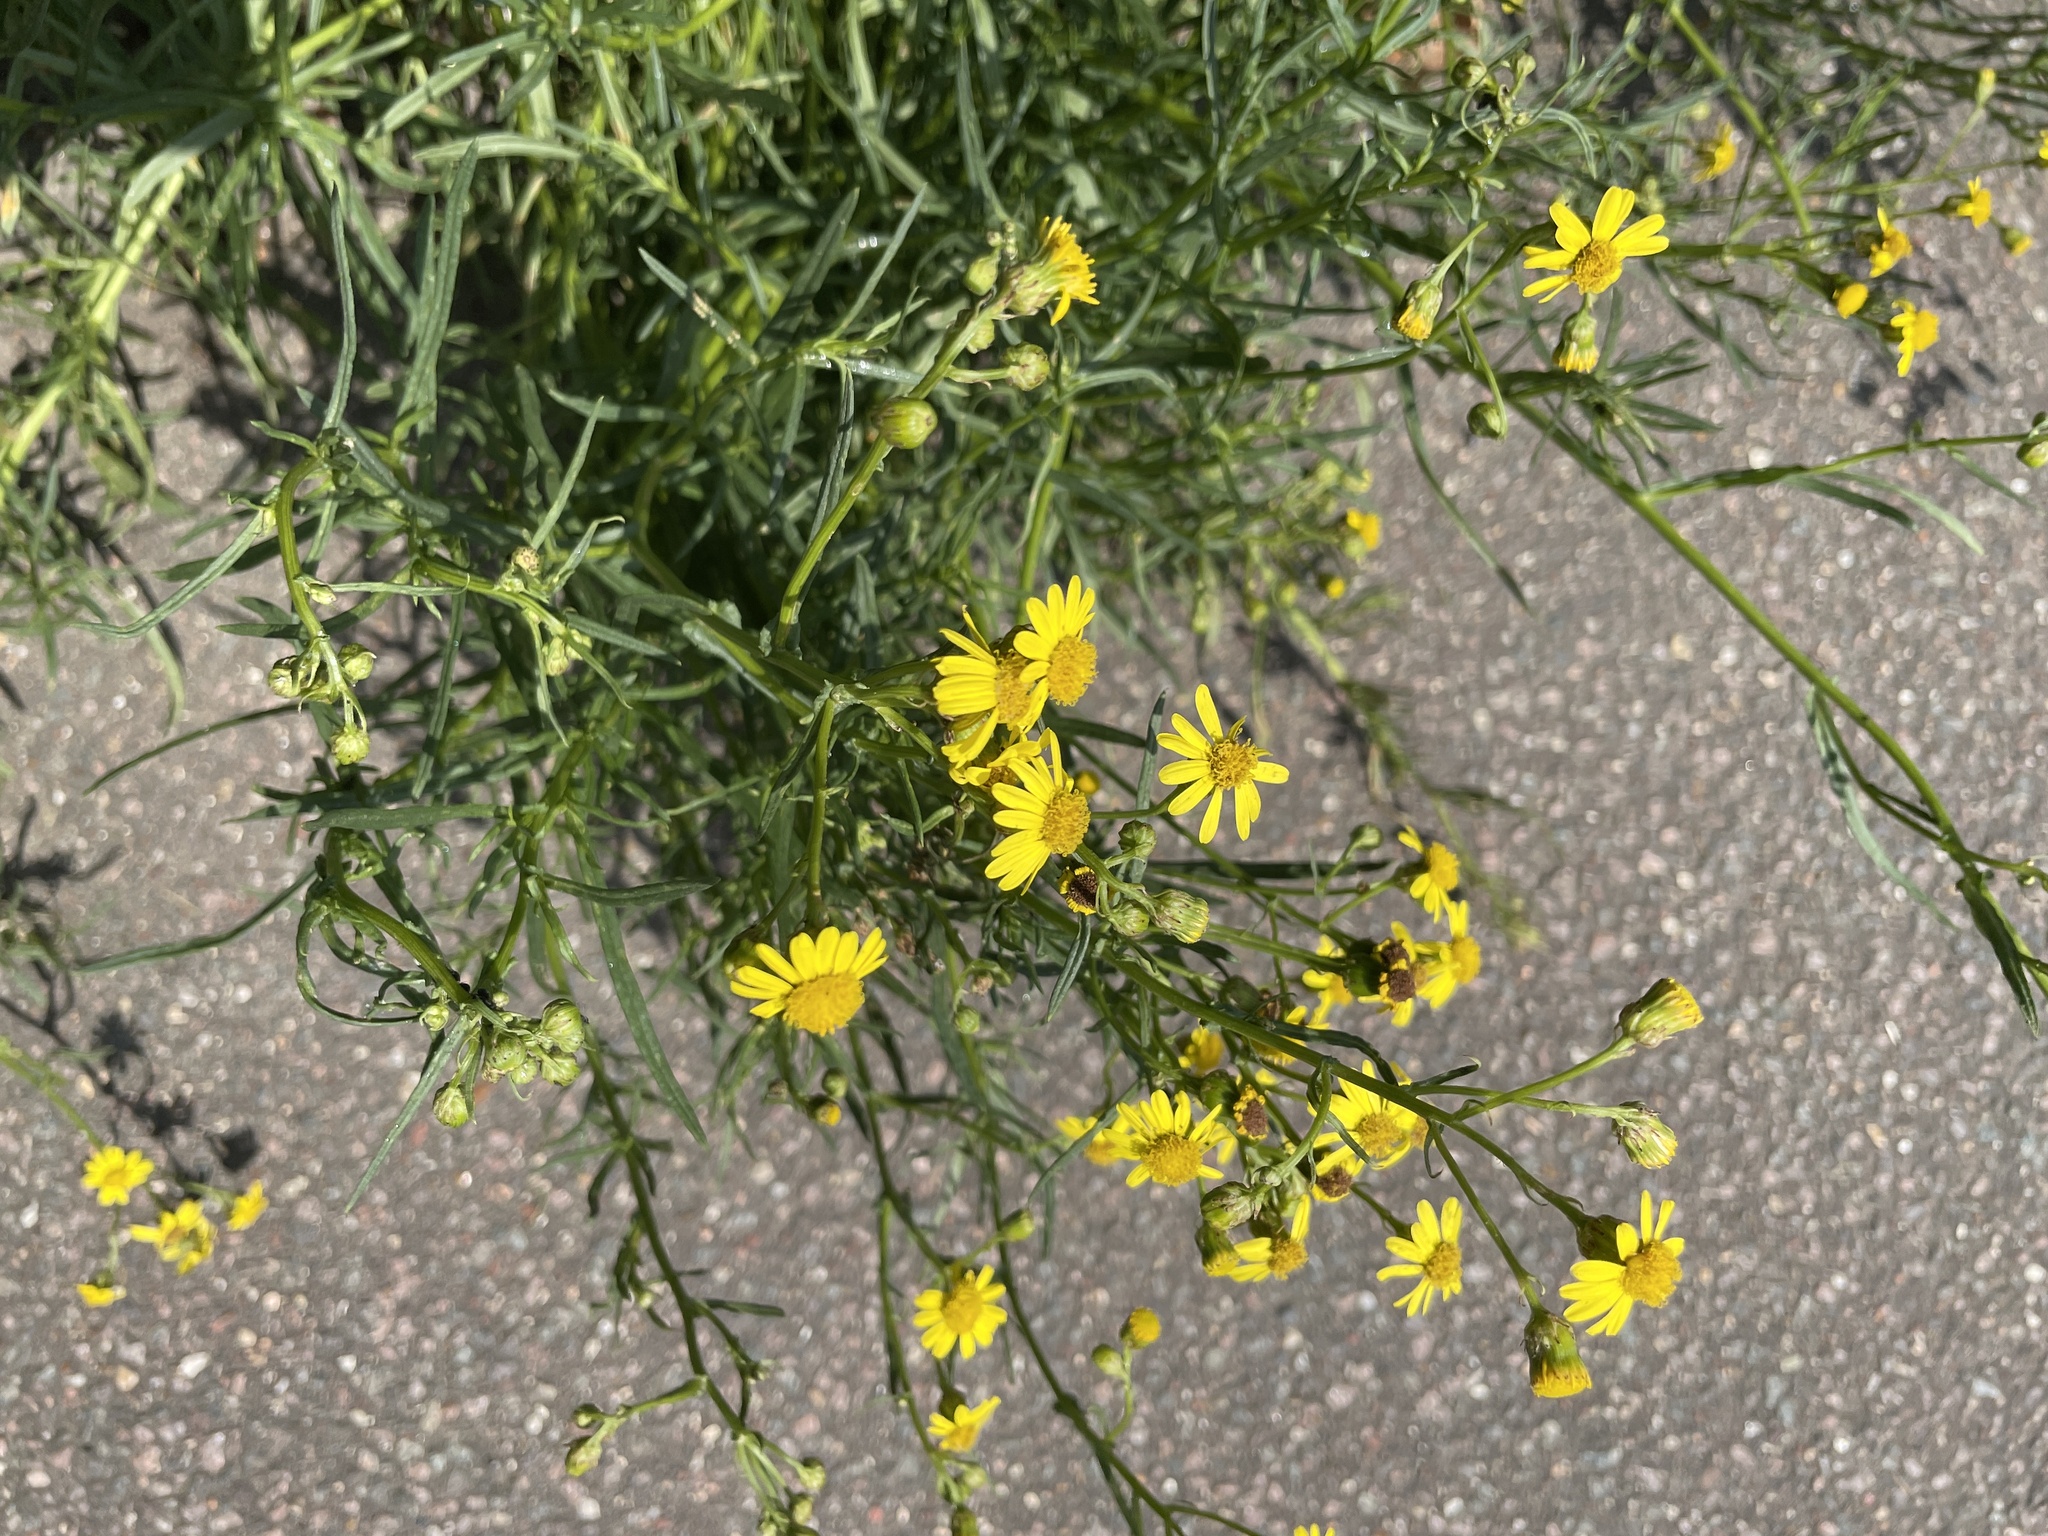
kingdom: Plantae
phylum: Tracheophyta
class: Magnoliopsida
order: Asterales
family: Asteraceae
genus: Senecio
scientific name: Senecio inaequidens
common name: Narrow-leaved ragwort
